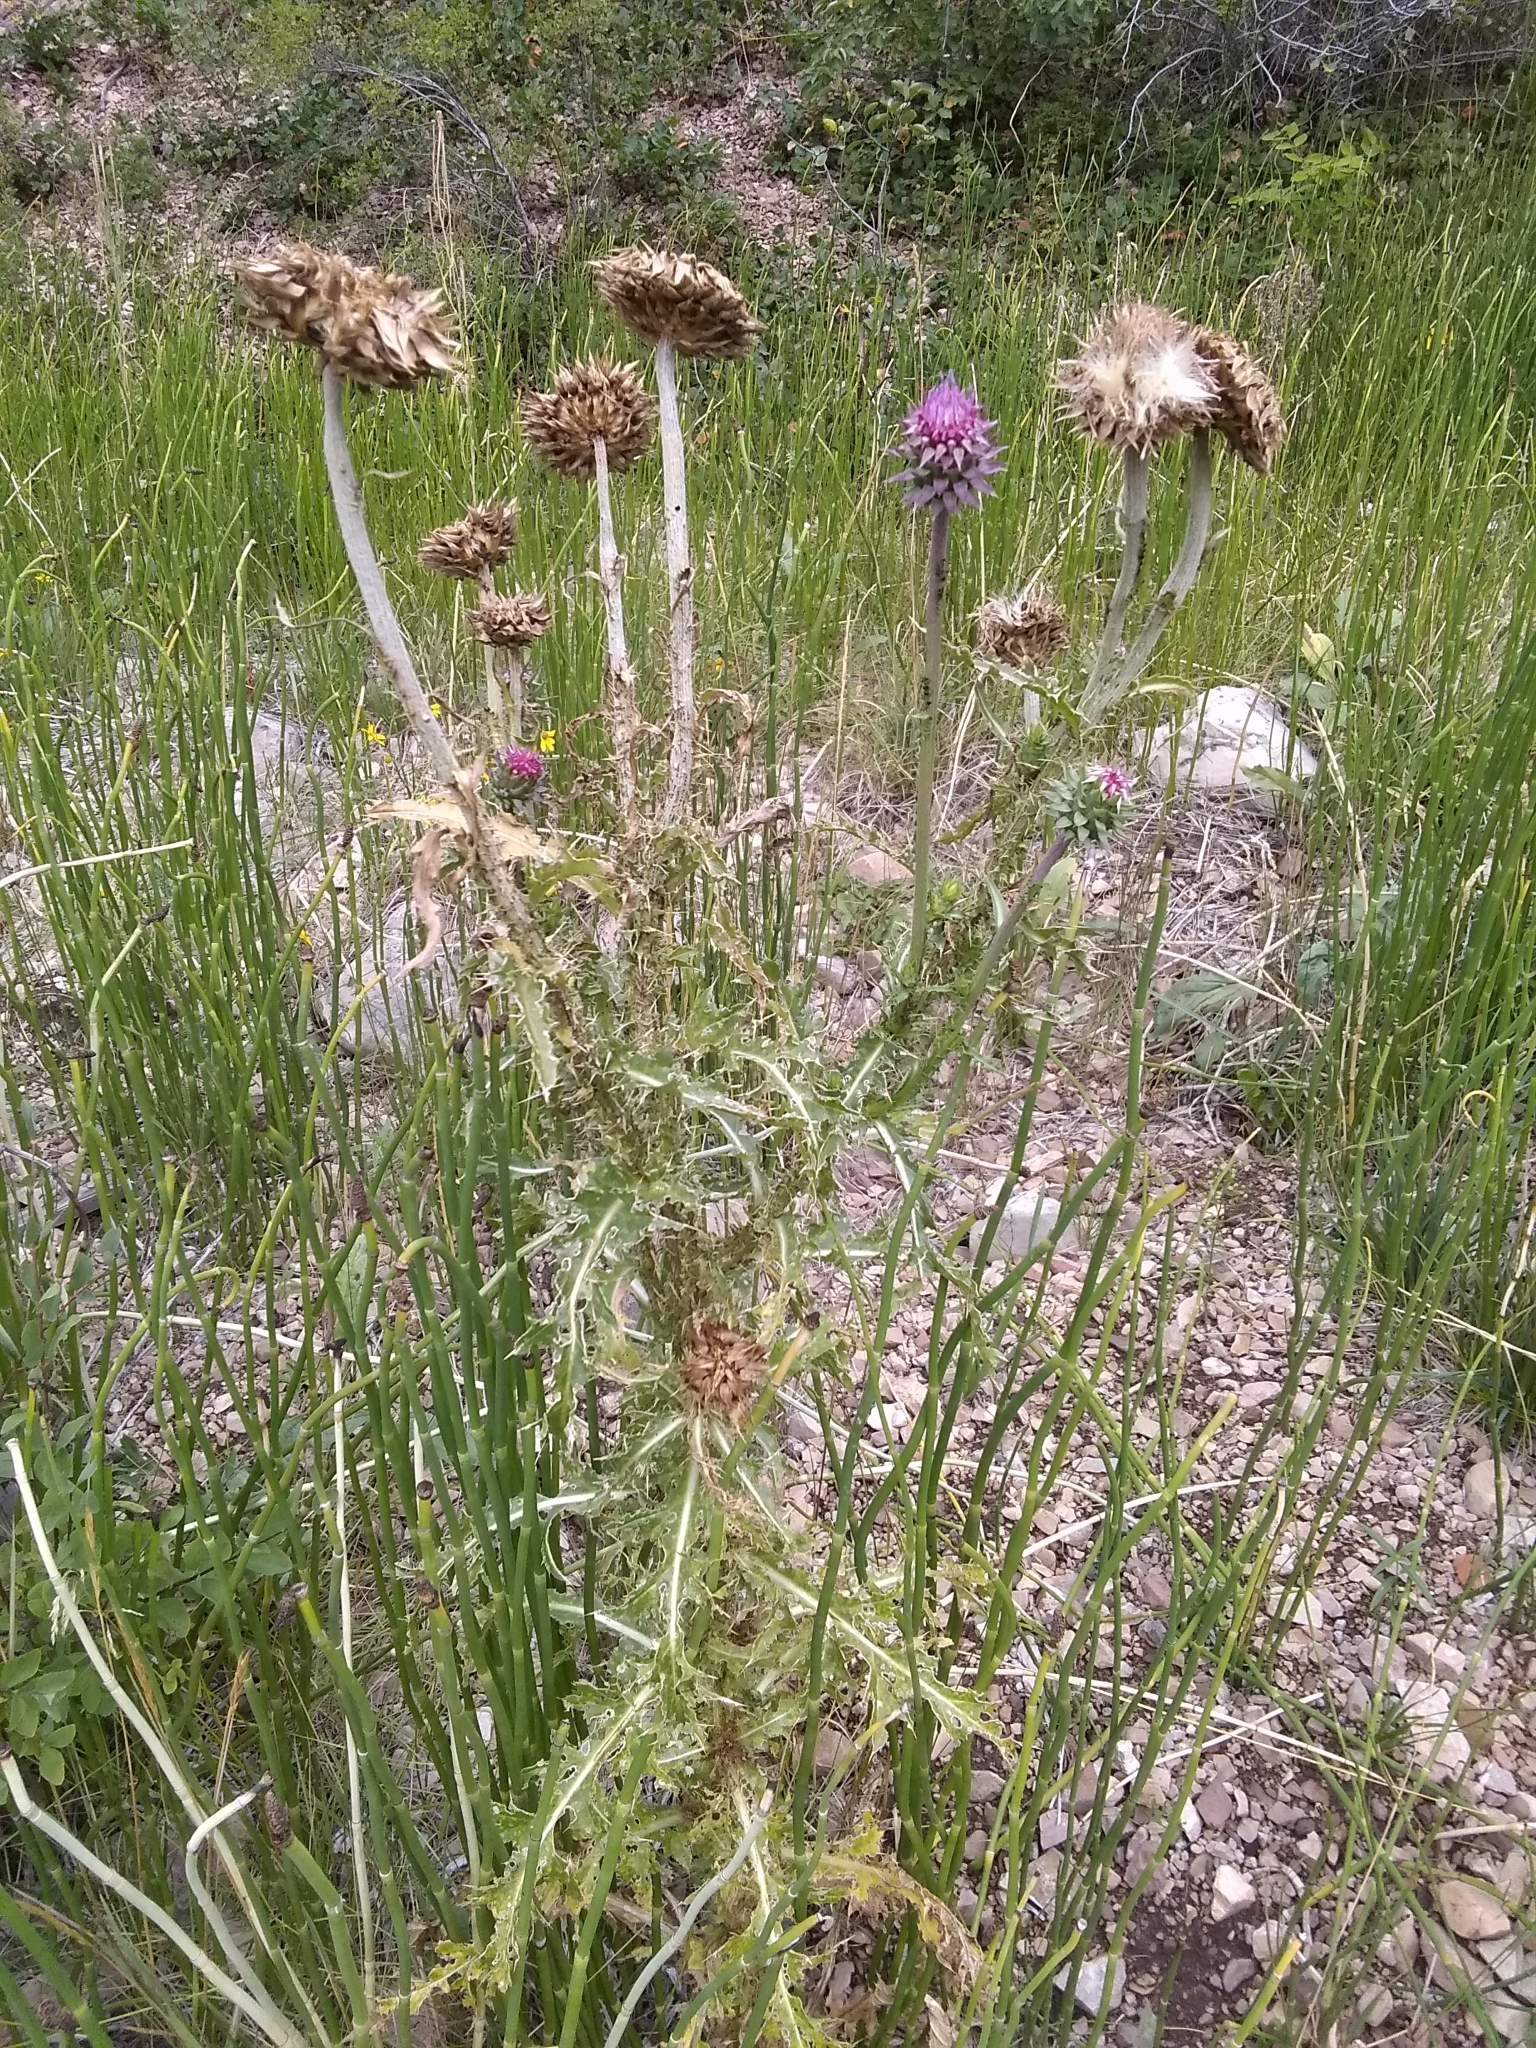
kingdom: Plantae
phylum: Tracheophyta
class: Magnoliopsida
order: Asterales
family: Asteraceae
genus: Carduus
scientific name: Carduus nutans
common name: Musk thistle
